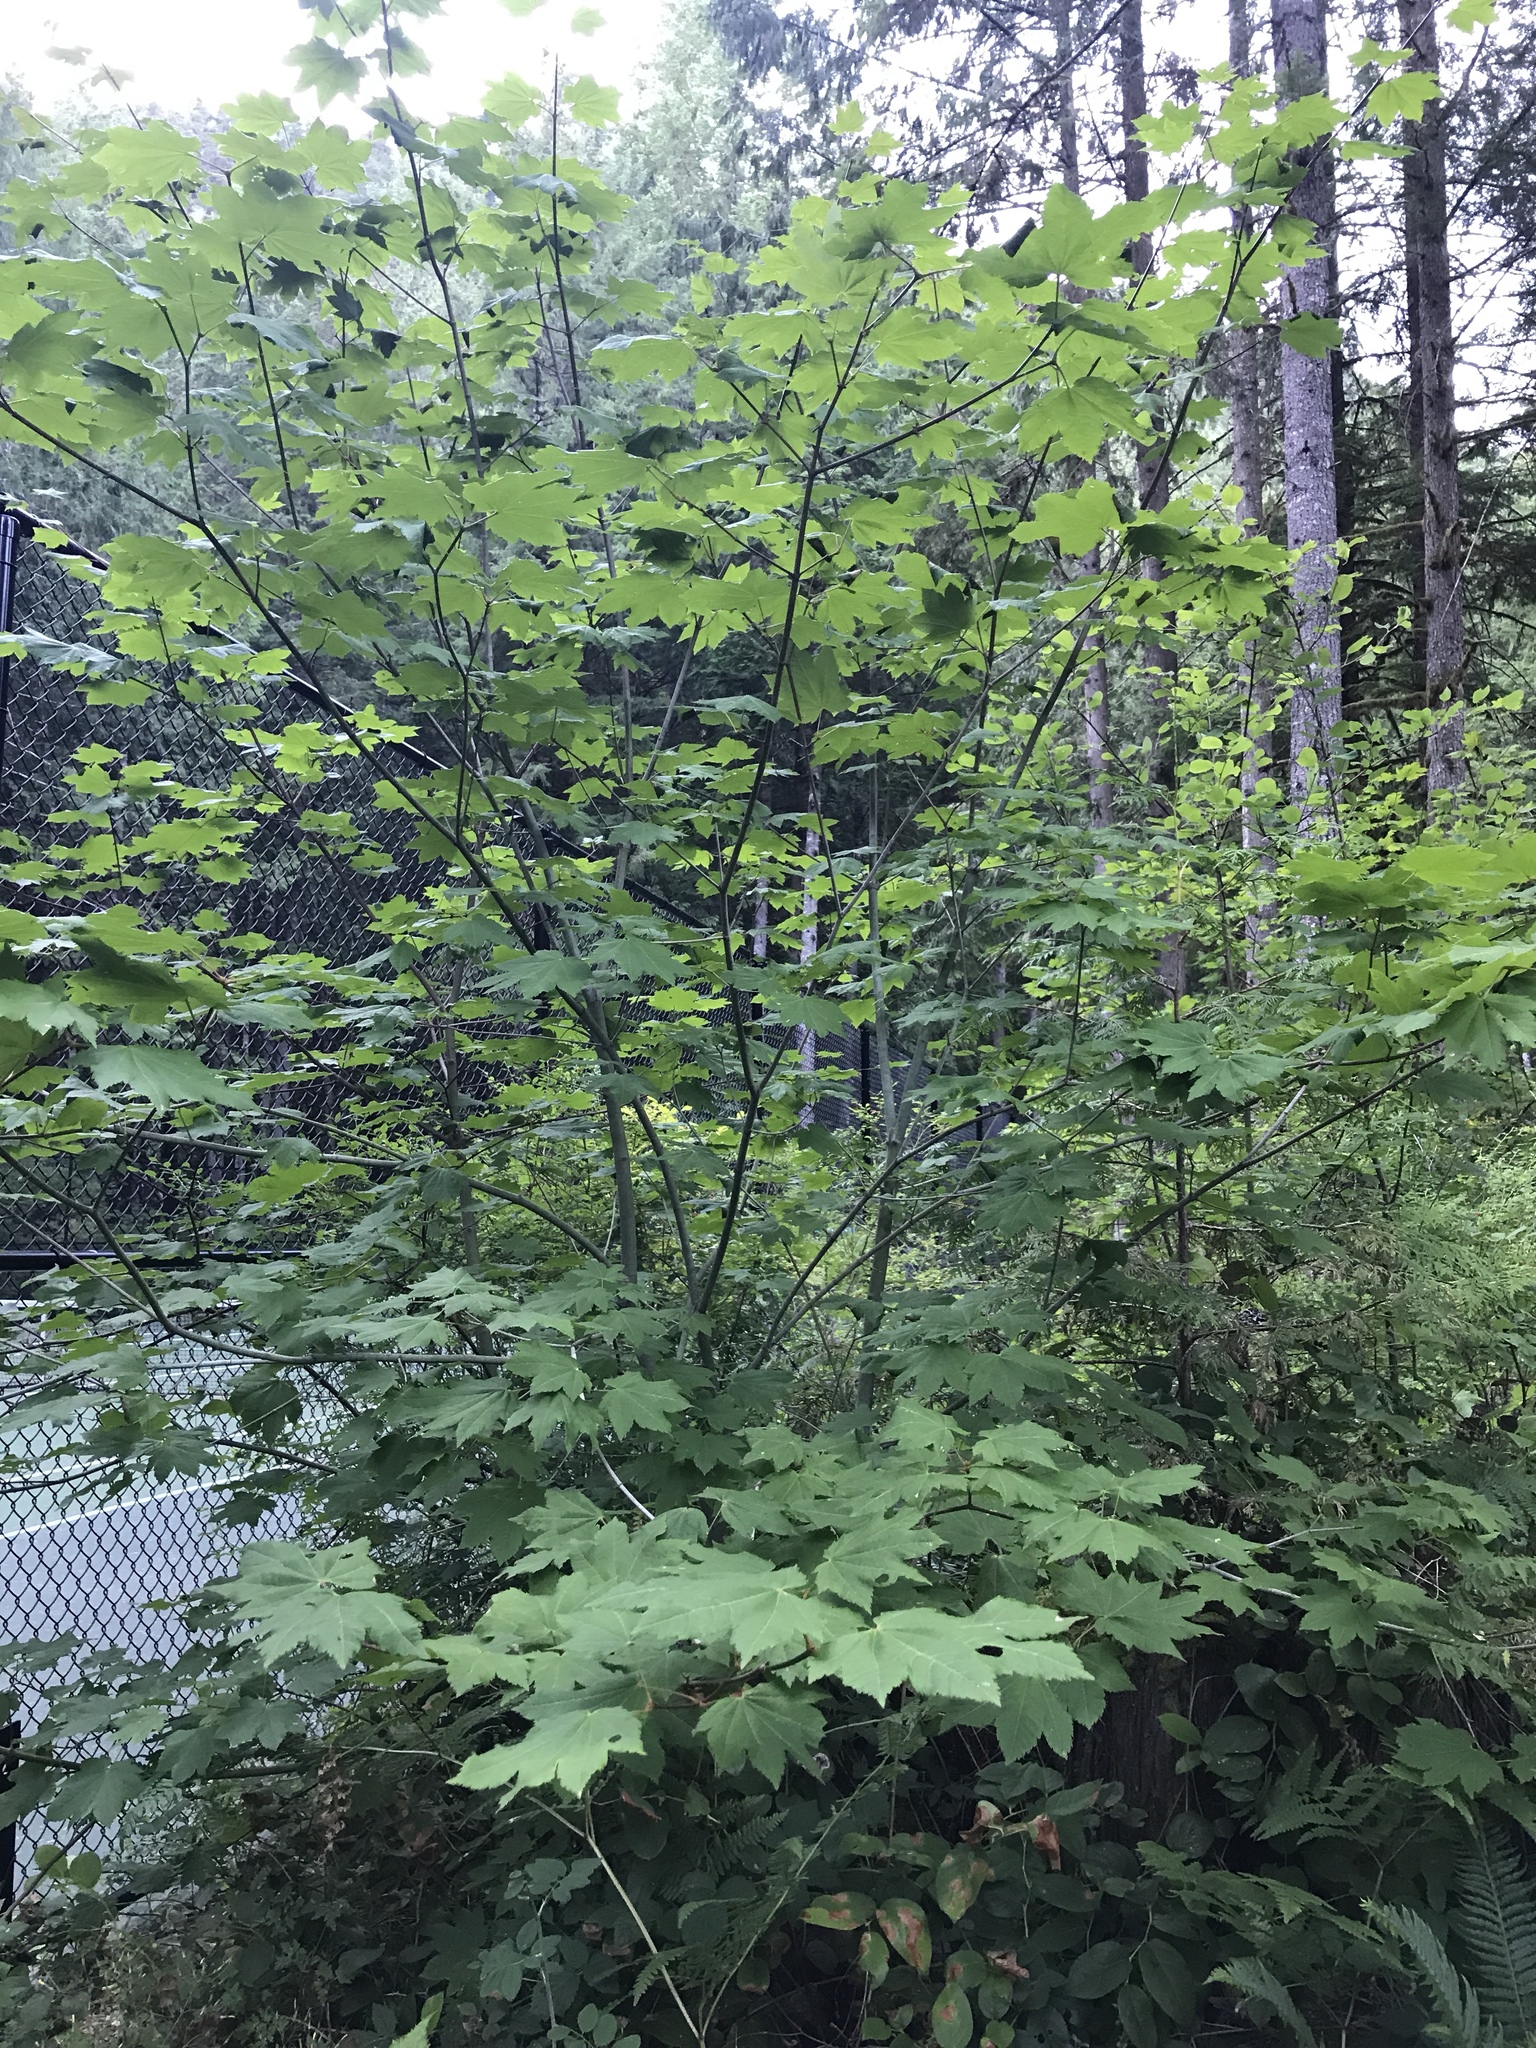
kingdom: Plantae
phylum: Tracheophyta
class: Magnoliopsida
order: Sapindales
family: Sapindaceae
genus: Acer
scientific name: Acer circinatum
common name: Vine maple
